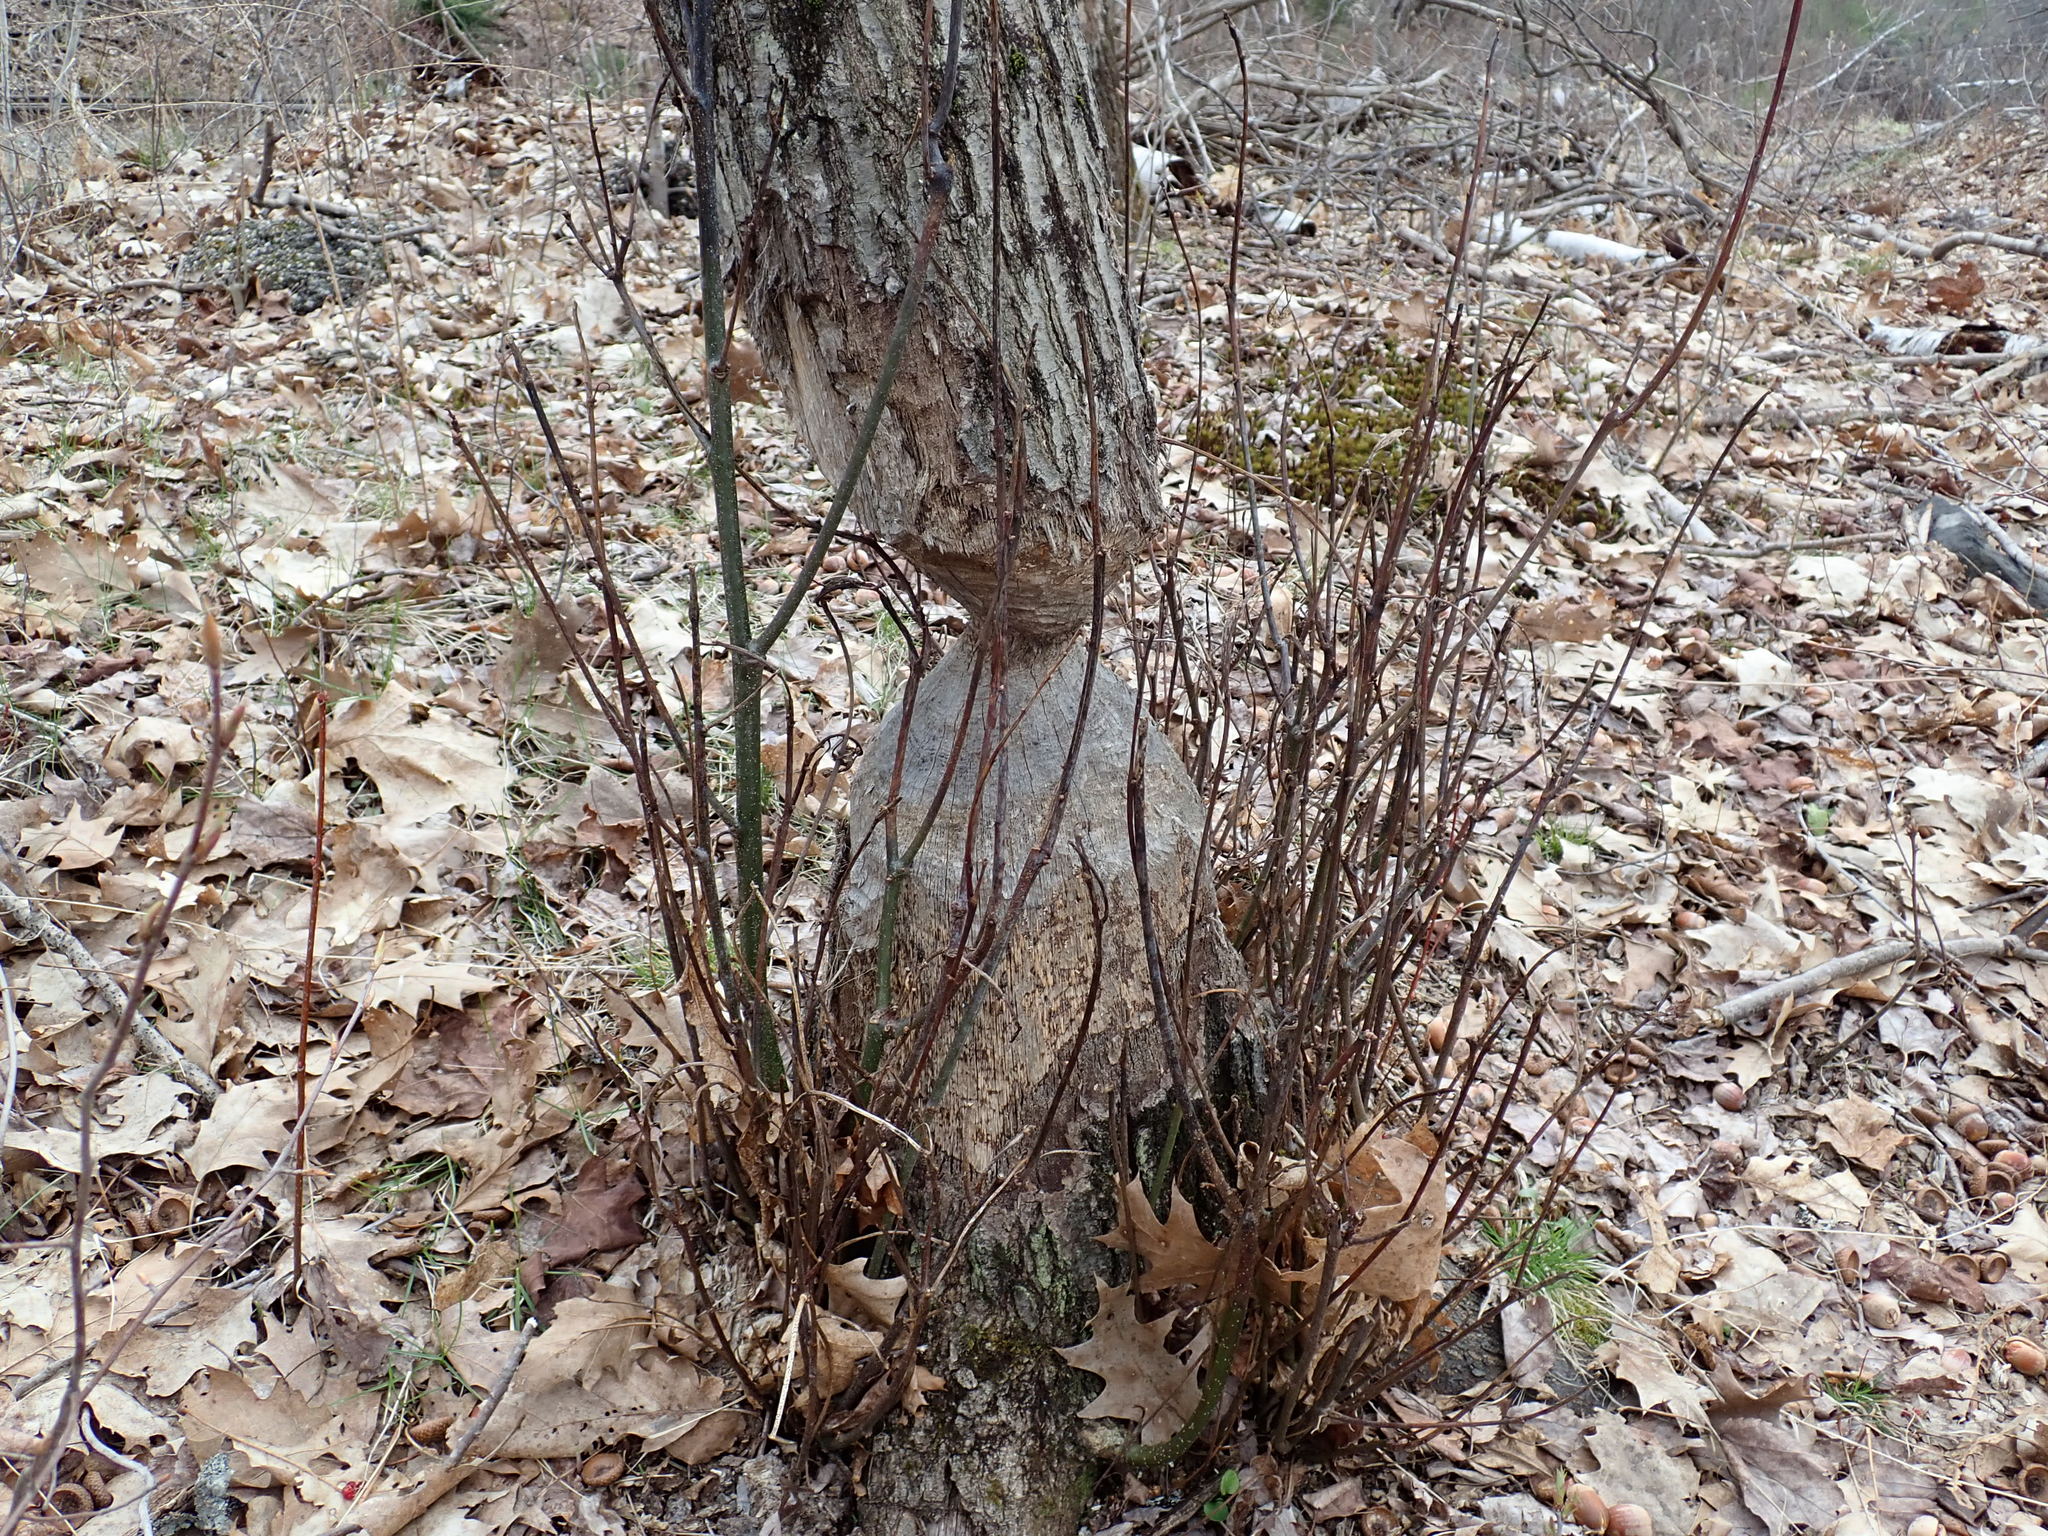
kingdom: Animalia
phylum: Chordata
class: Mammalia
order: Rodentia
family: Castoridae
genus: Castor
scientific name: Castor canadensis
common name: American beaver
